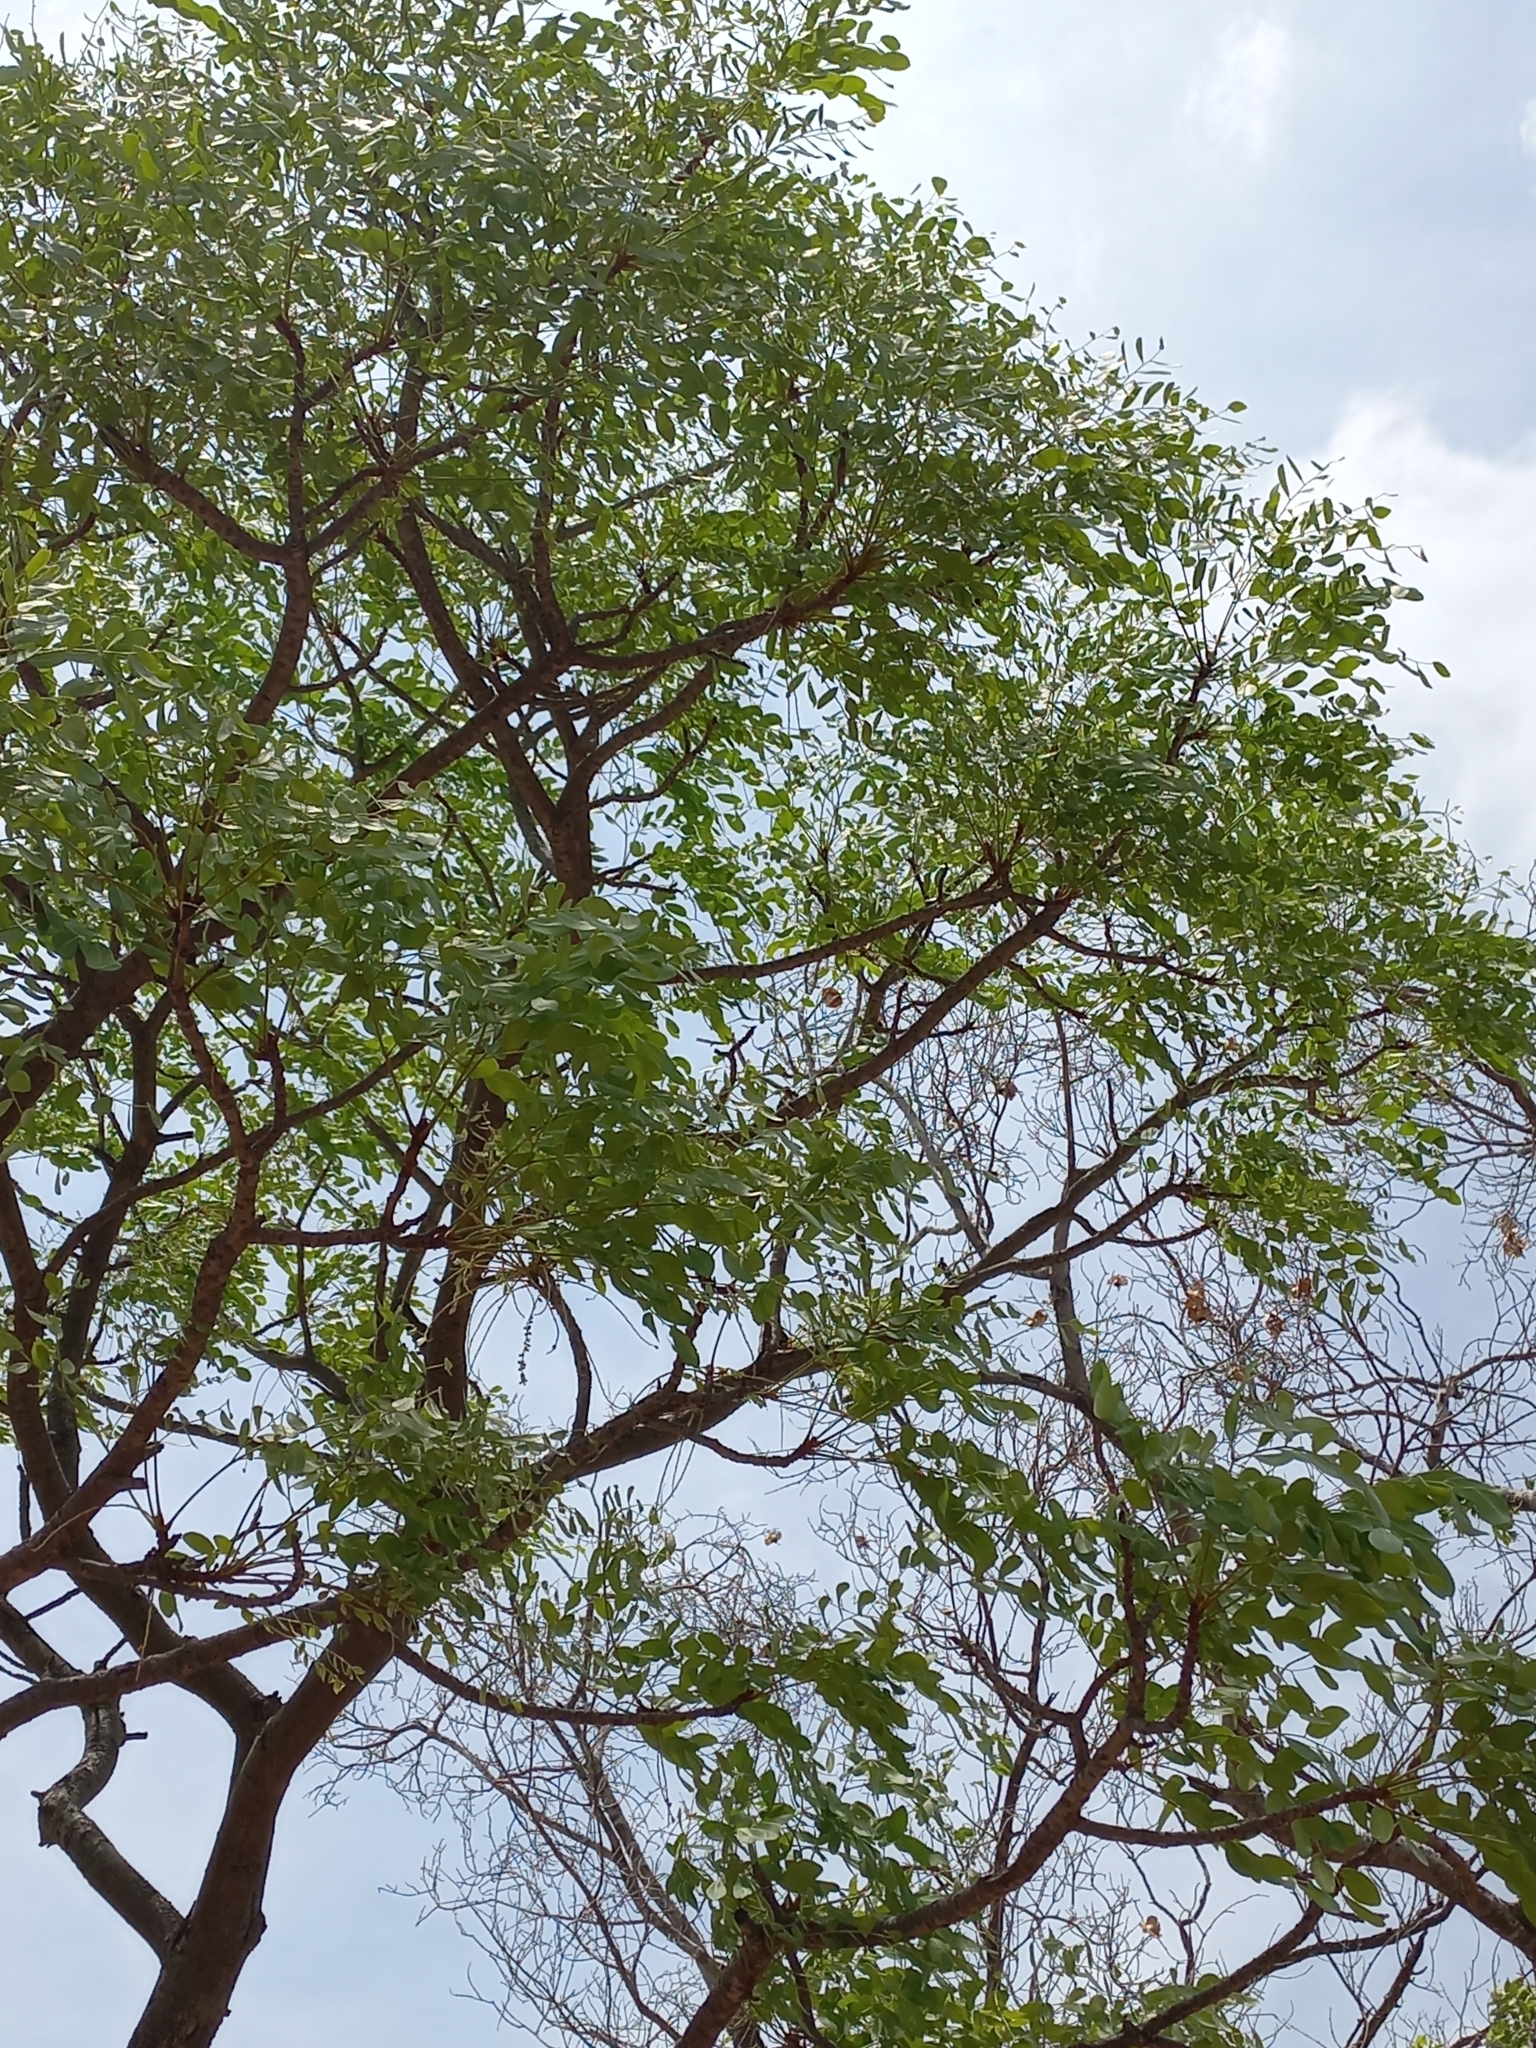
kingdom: Plantae
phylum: Tracheophyta
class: Magnoliopsida
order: Fabales
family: Fabaceae
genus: Burkea
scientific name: Burkea africana
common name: Mkalati tree
